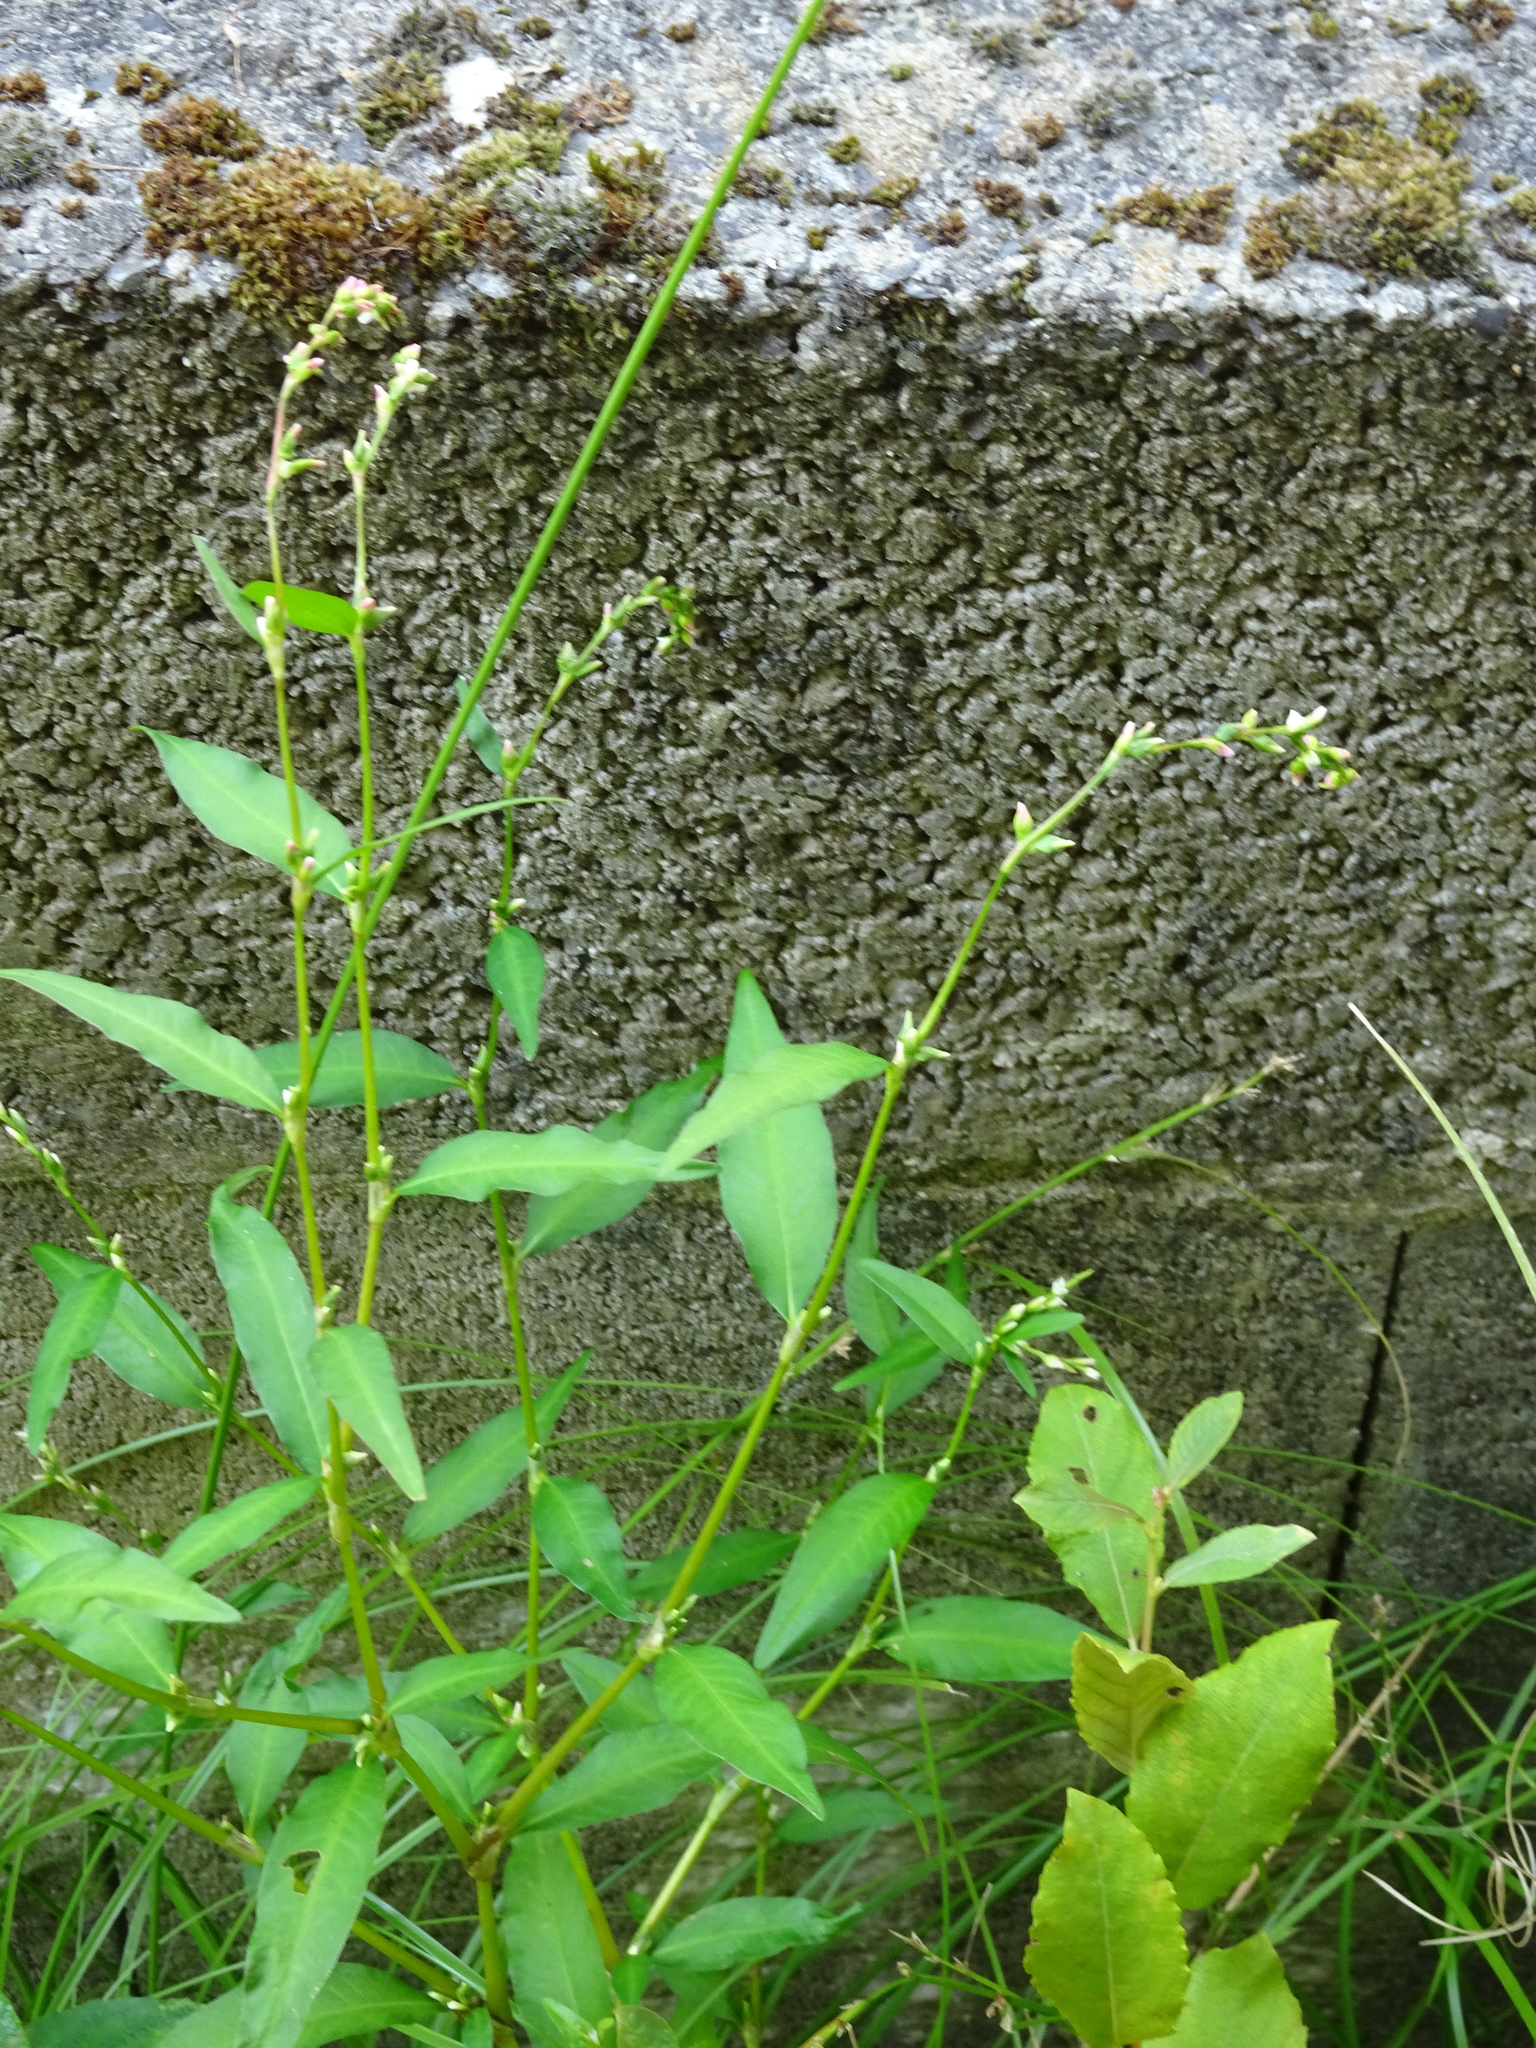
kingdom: Plantae
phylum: Tracheophyta
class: Magnoliopsida
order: Caryophyllales
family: Polygonaceae
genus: Persicaria
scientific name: Persicaria hydropiper
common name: Water-pepper
